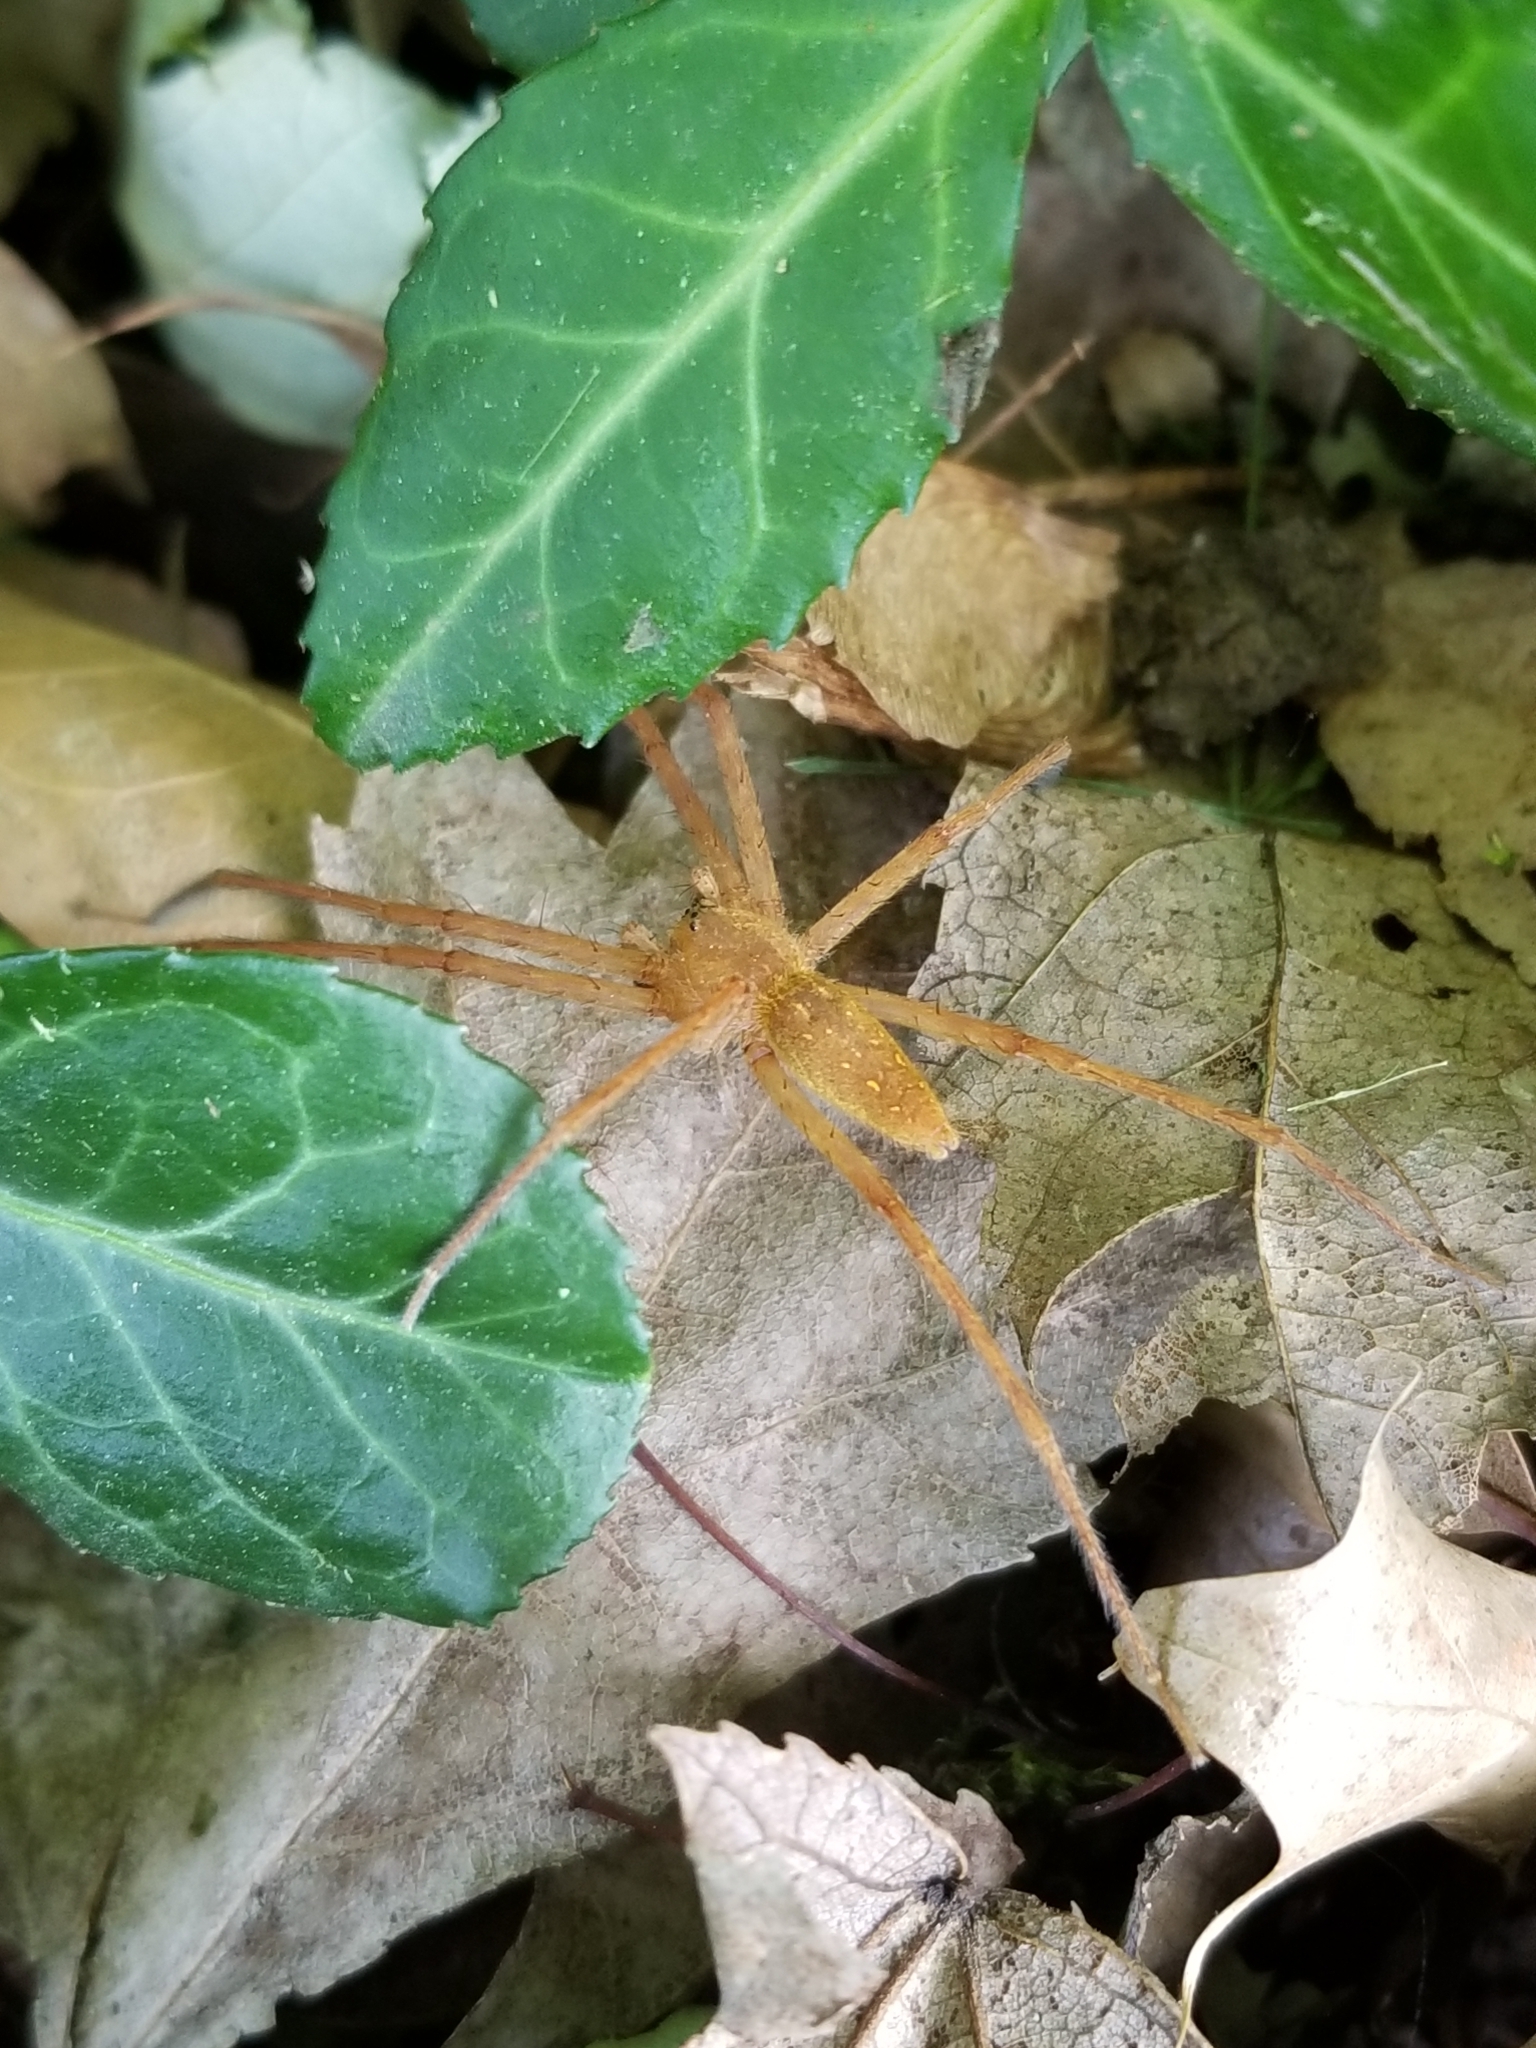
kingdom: Animalia
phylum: Arthropoda
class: Arachnida
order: Araneae
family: Pisauridae
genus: Pisaurina
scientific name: Pisaurina mira
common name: American nursery web spider
